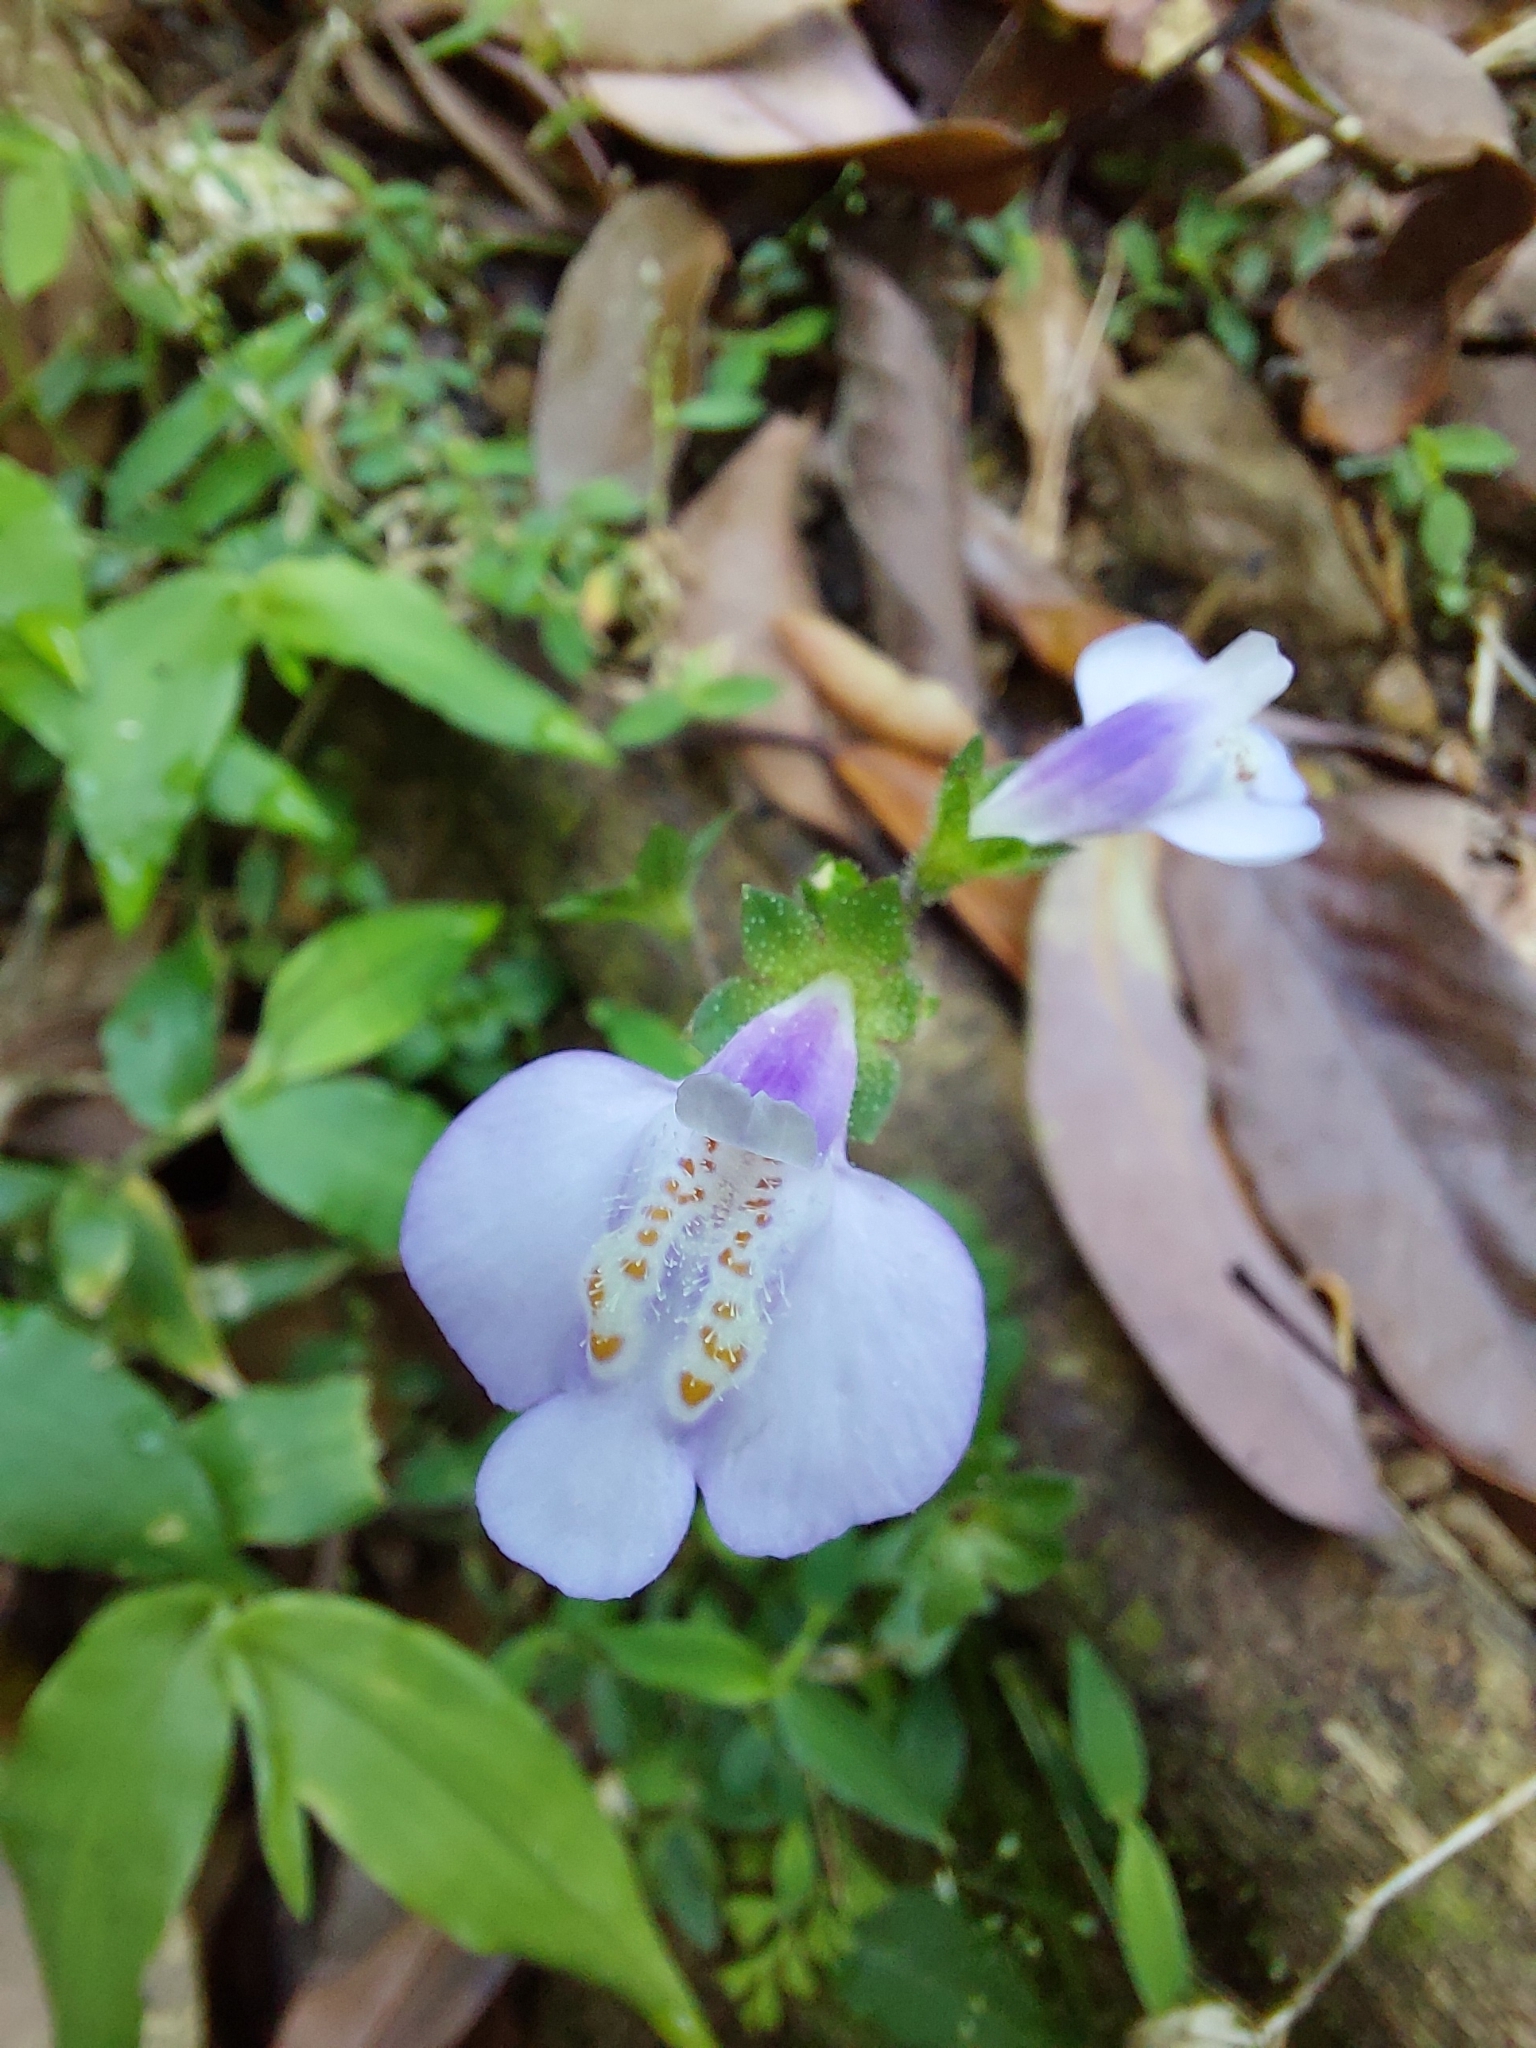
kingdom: Plantae
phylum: Tracheophyta
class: Magnoliopsida
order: Lamiales
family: Mazaceae
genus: Mazus
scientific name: Mazus fauriei
